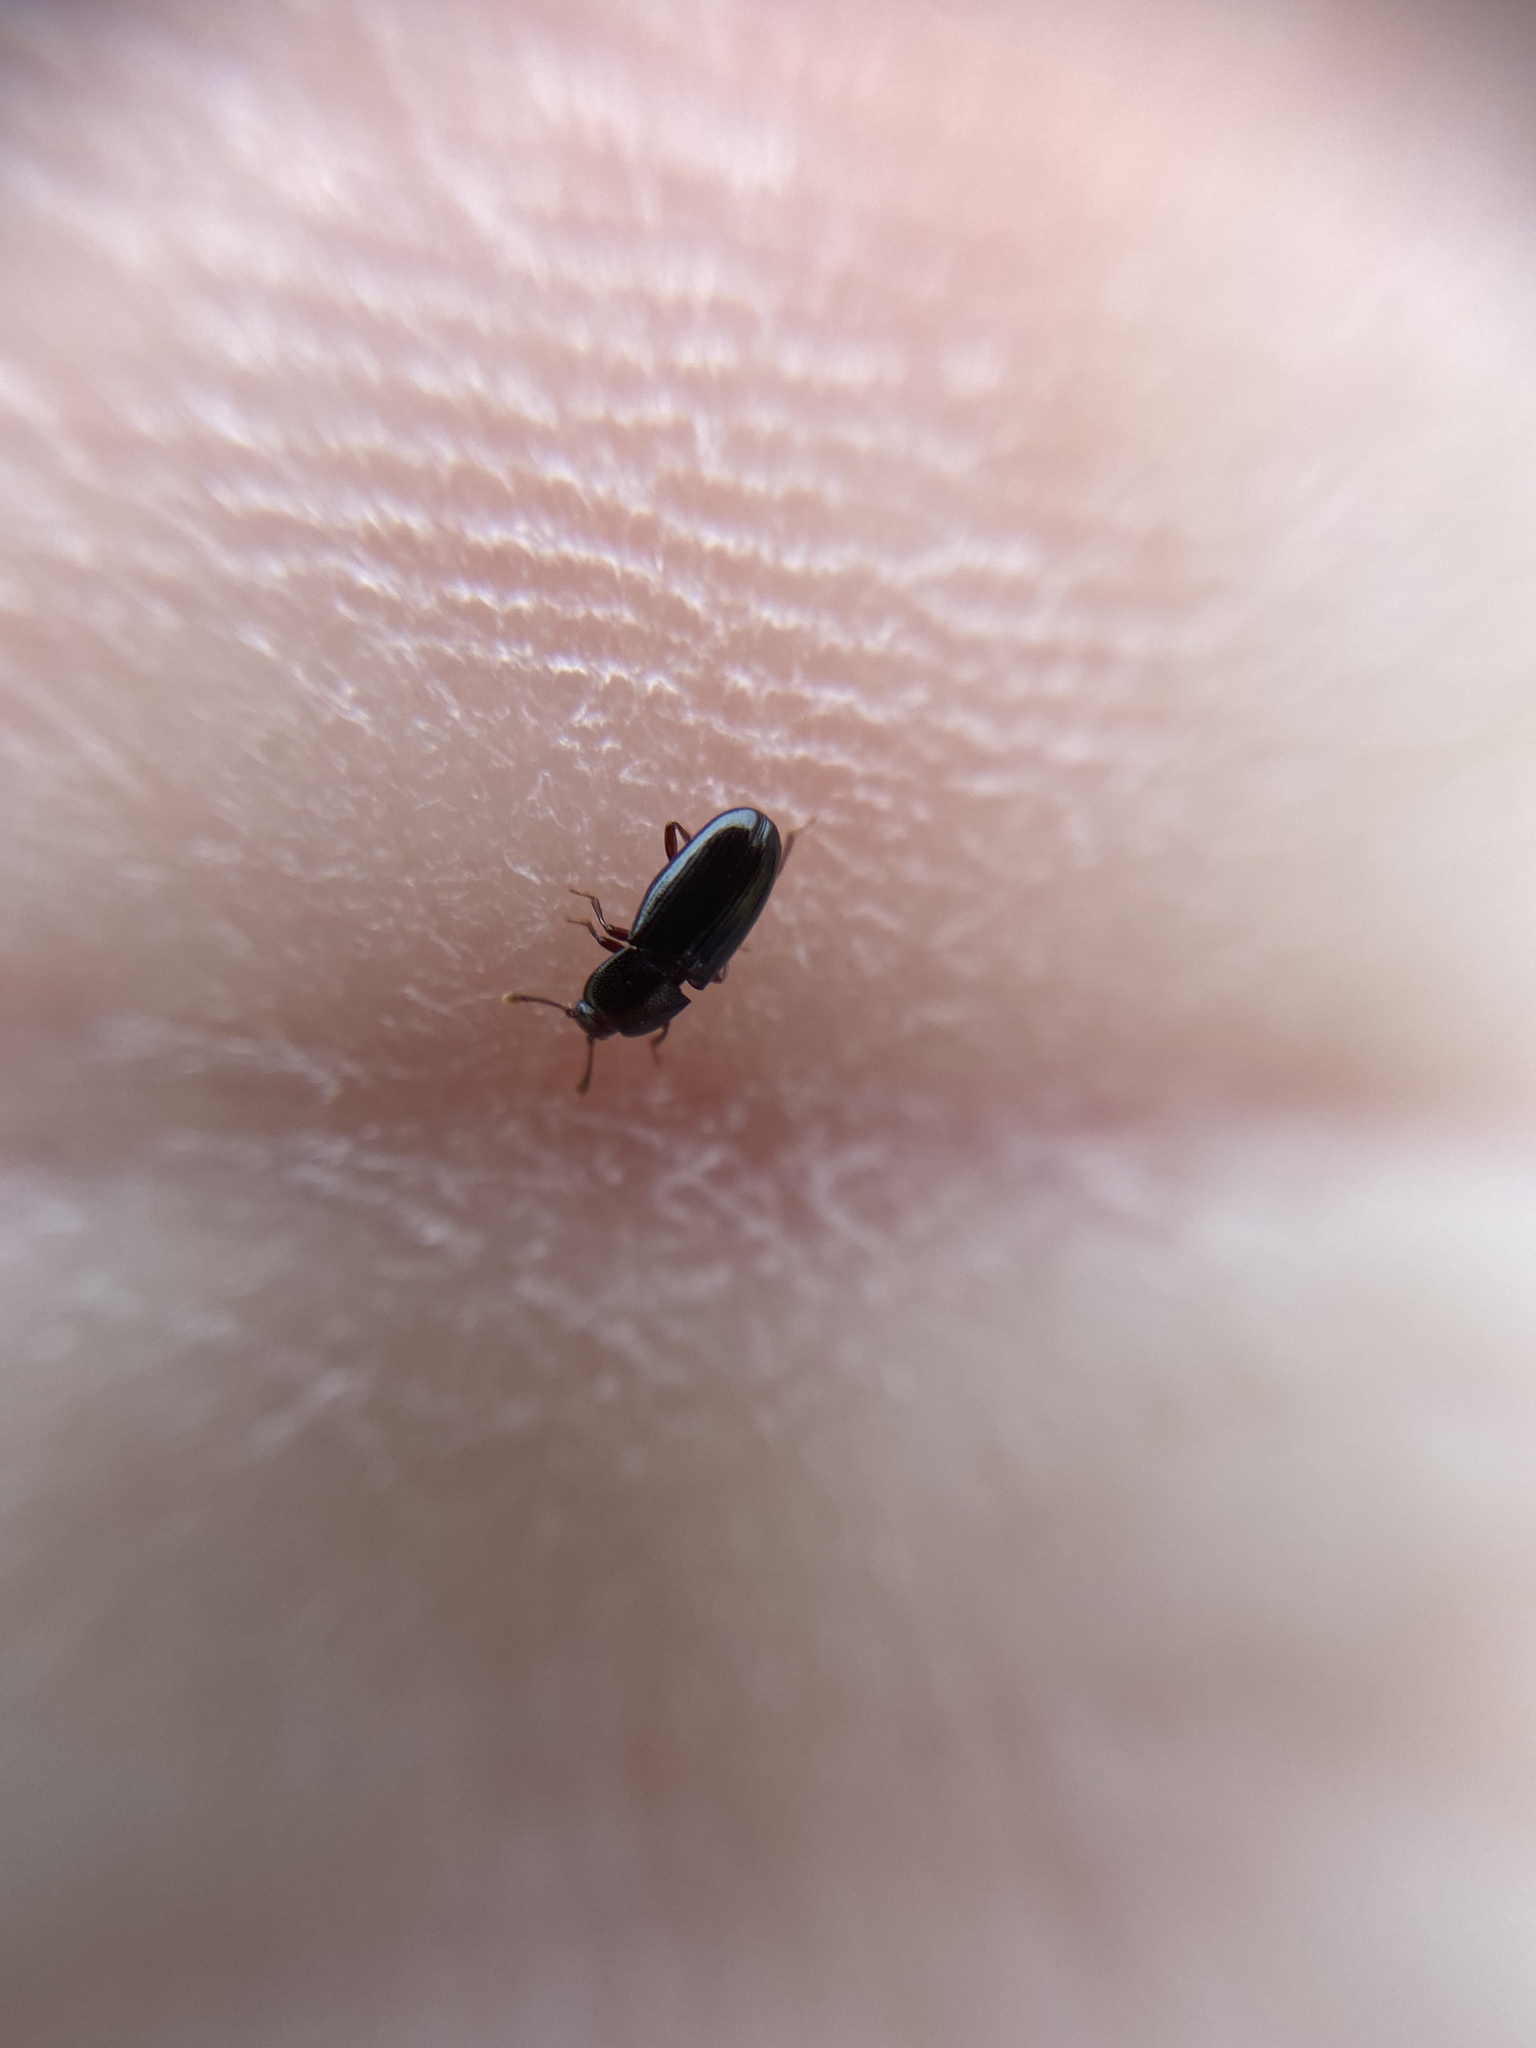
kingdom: Animalia
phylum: Arthropoda
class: Insecta
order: Coleoptera
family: Cerylonidae
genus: Cerylon
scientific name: Cerylon histeroides
